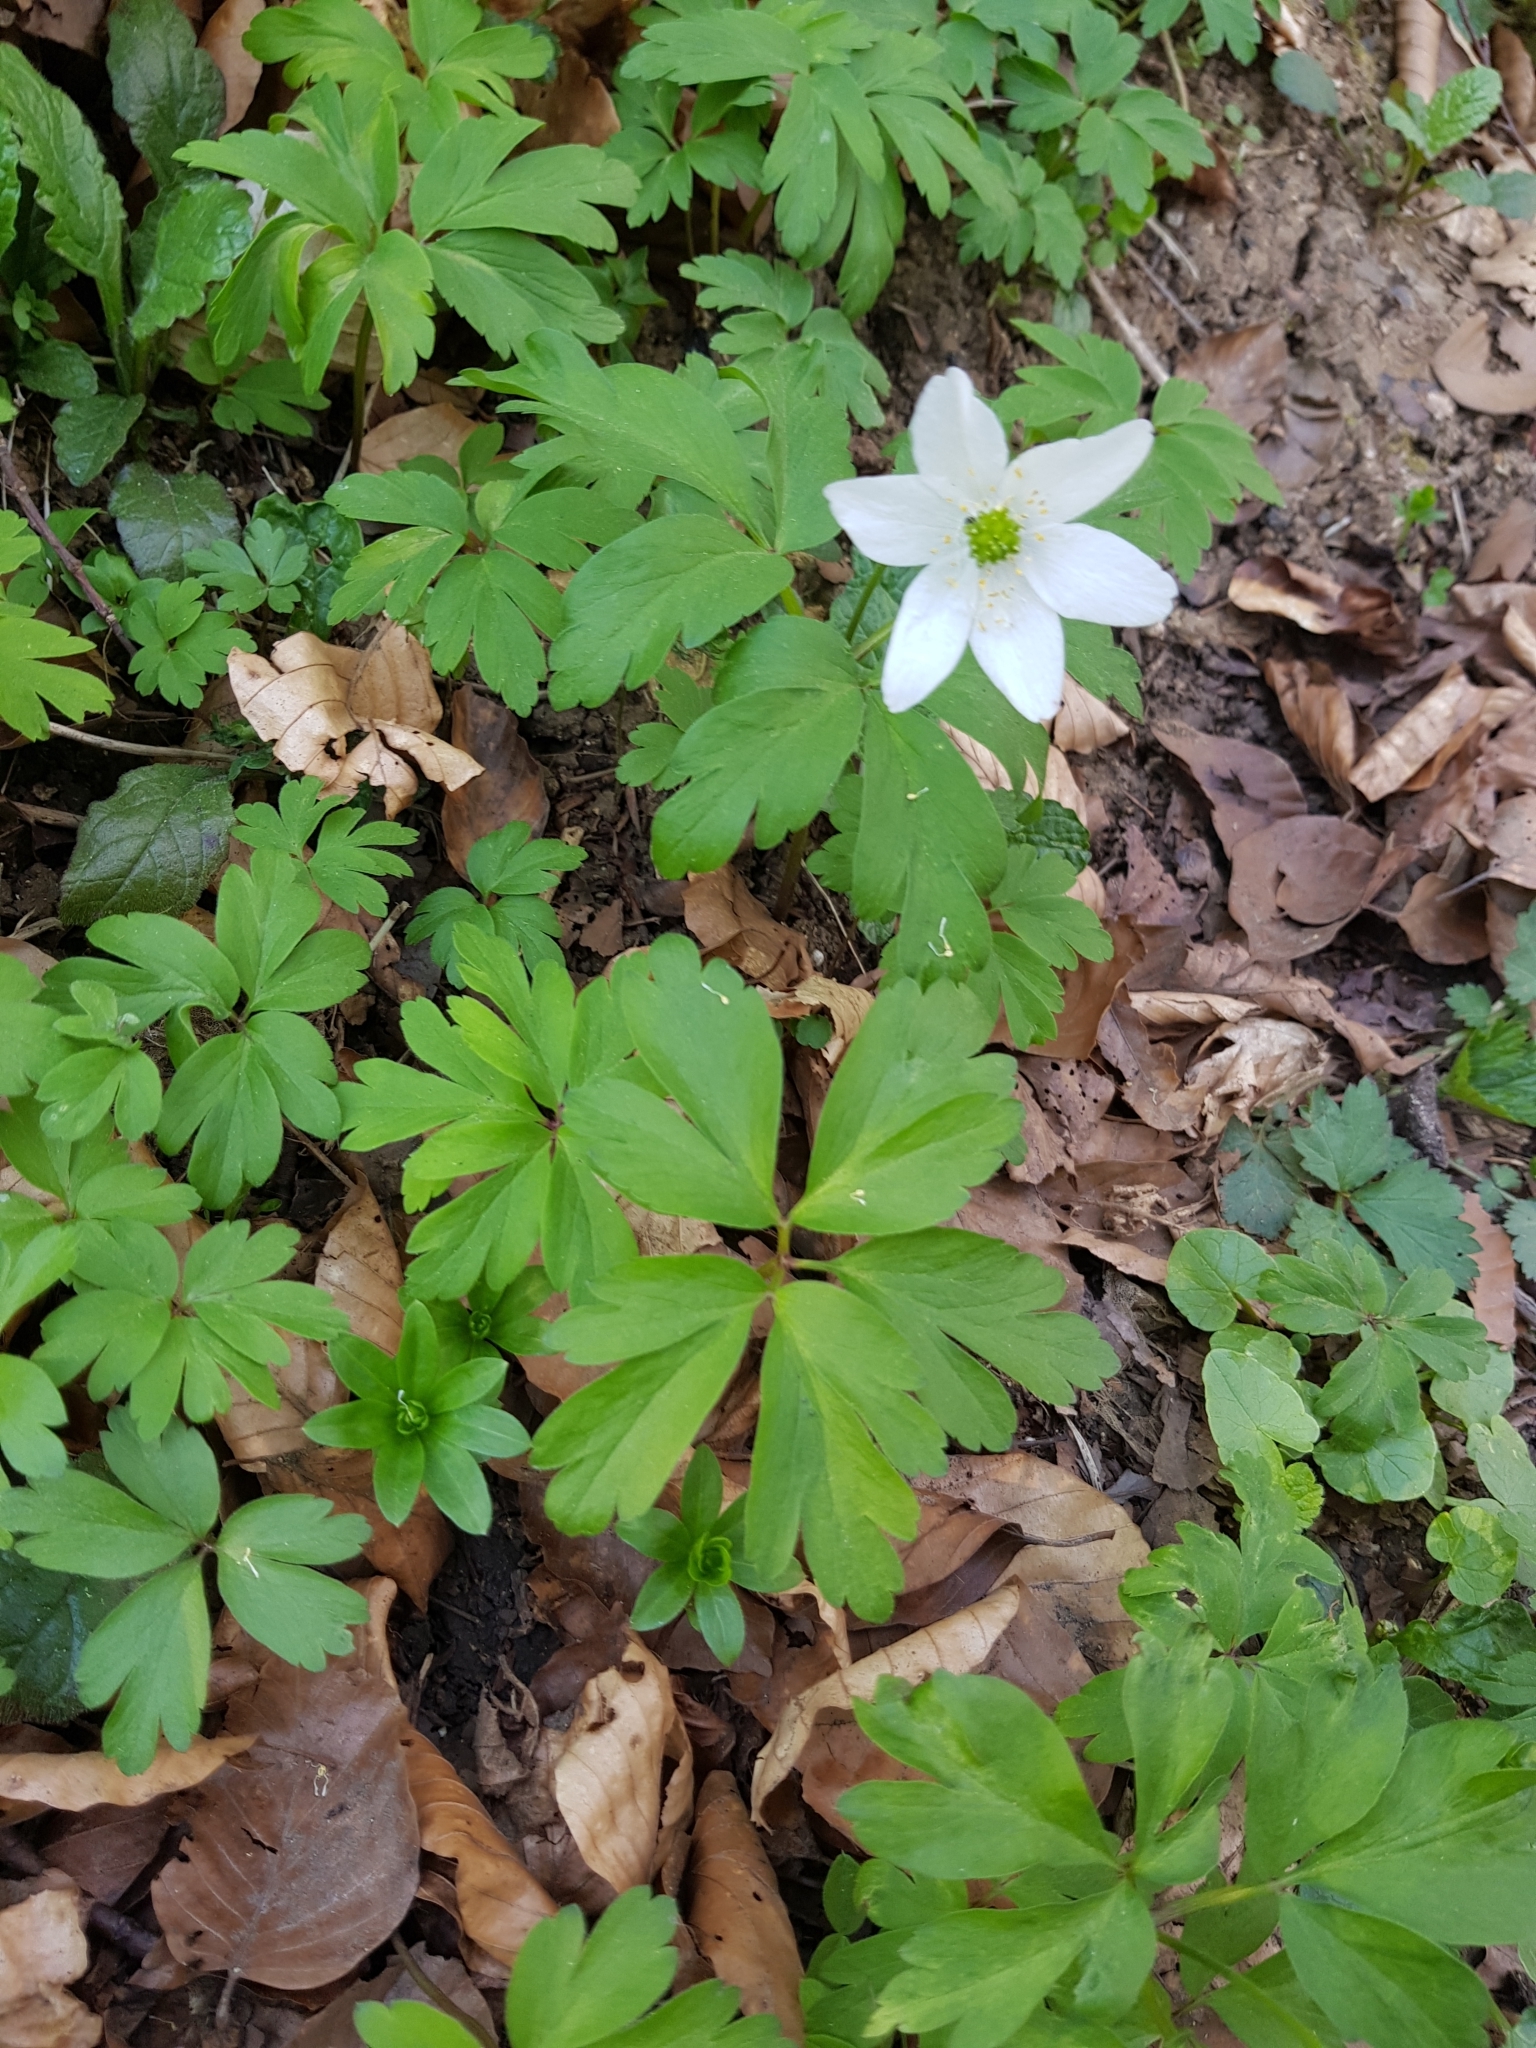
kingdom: Plantae
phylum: Tracheophyta
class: Magnoliopsida
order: Ranunculales
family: Ranunculaceae
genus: Anemone
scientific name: Anemone nemorosa
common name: Wood anemone
